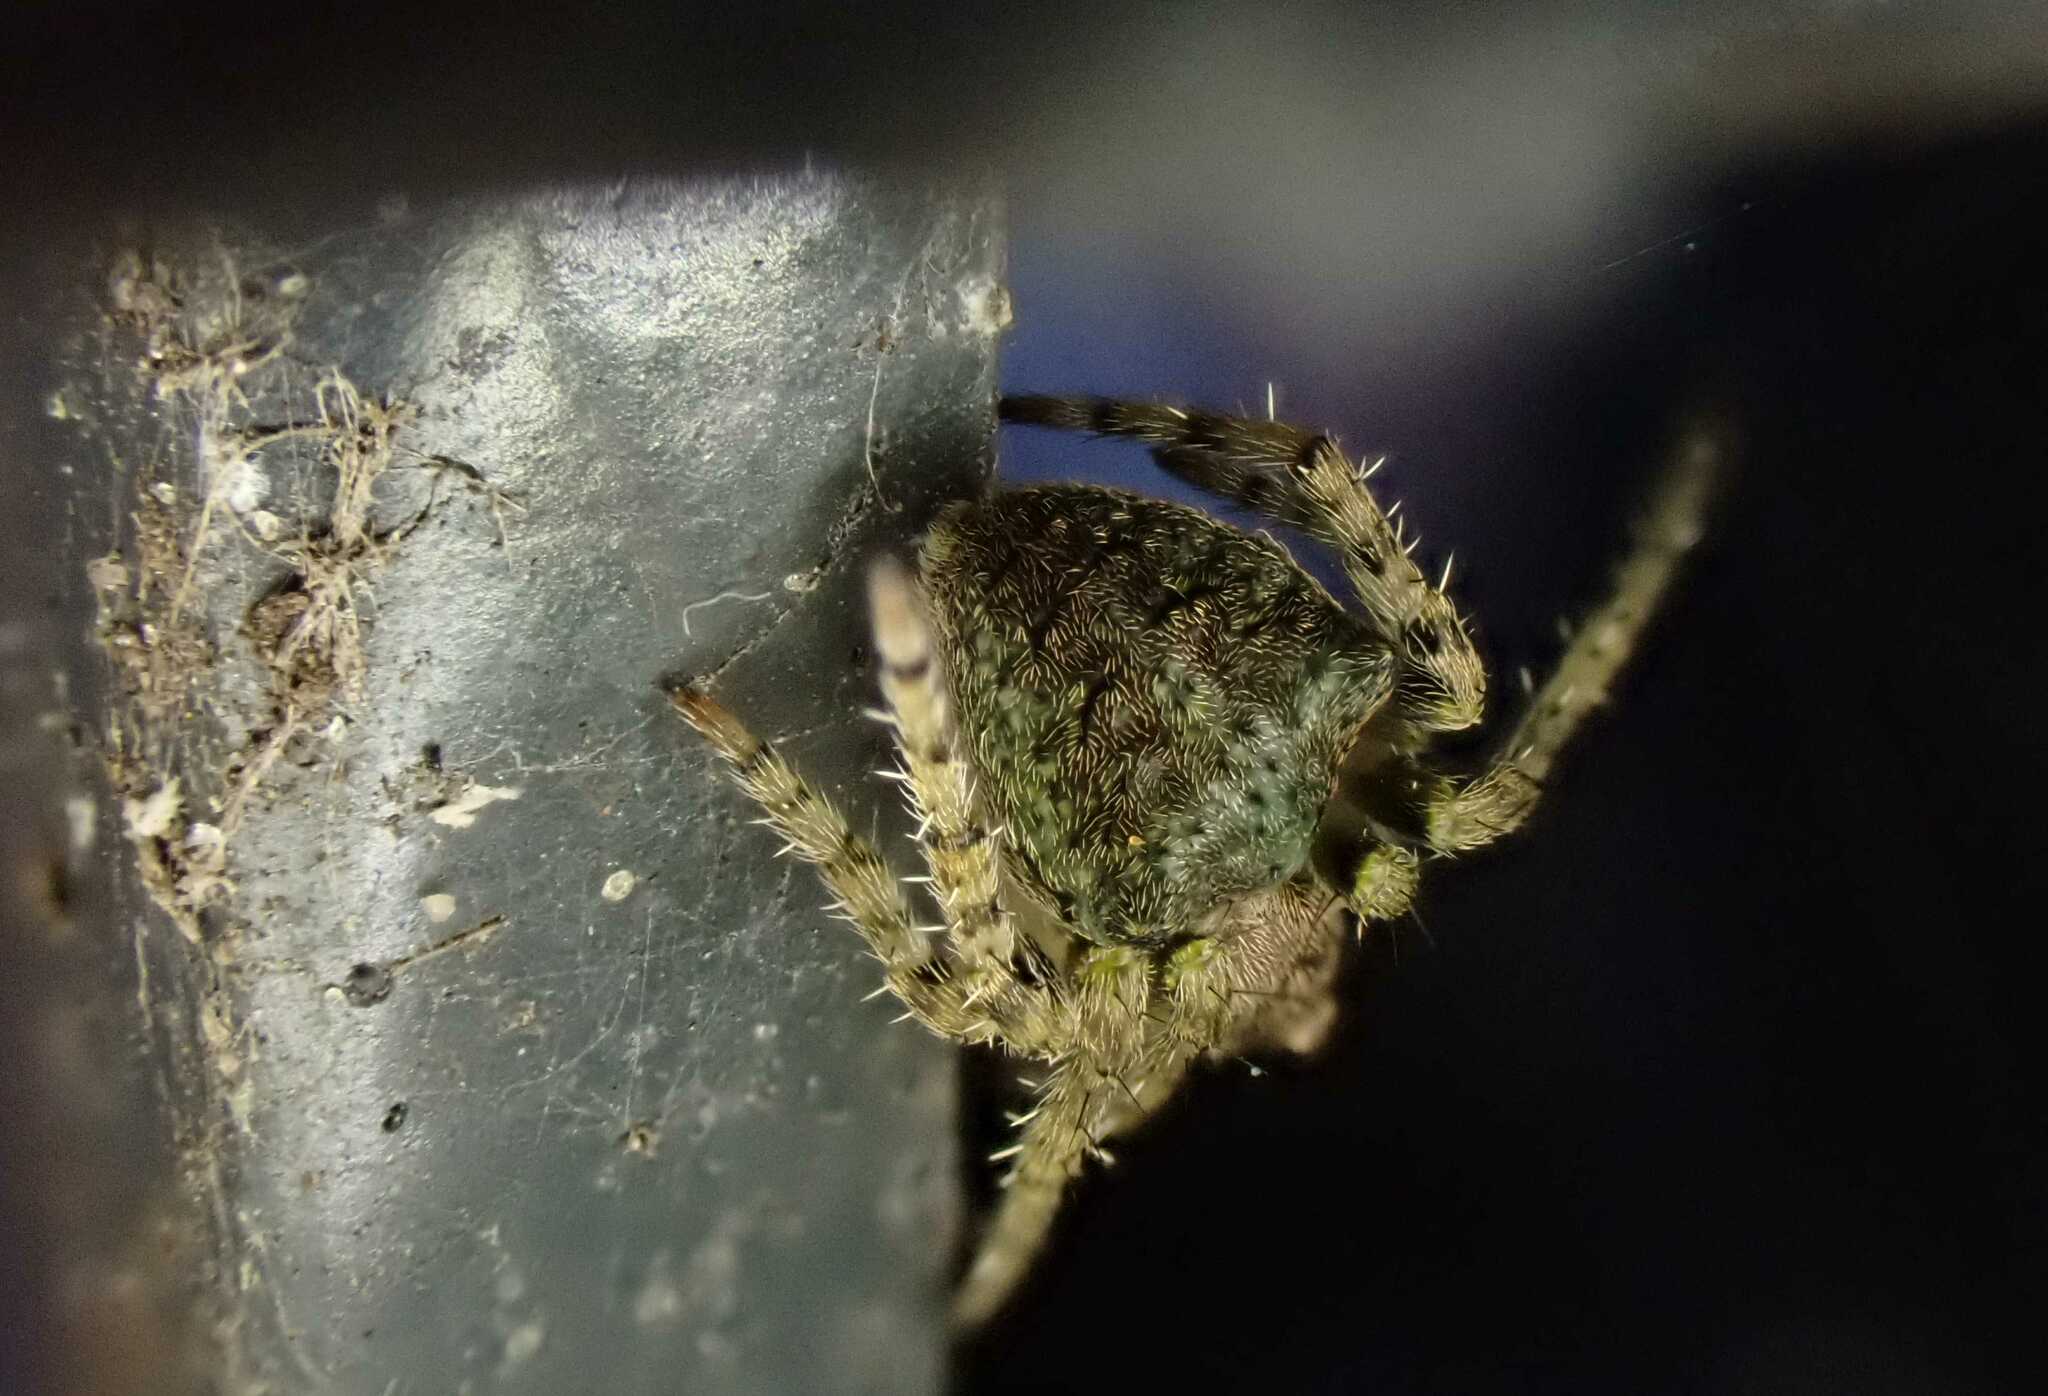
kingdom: Animalia
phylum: Arthropoda
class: Arachnida
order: Araneae
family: Araneidae
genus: Gibbaranea
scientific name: Gibbaranea gibbosa
